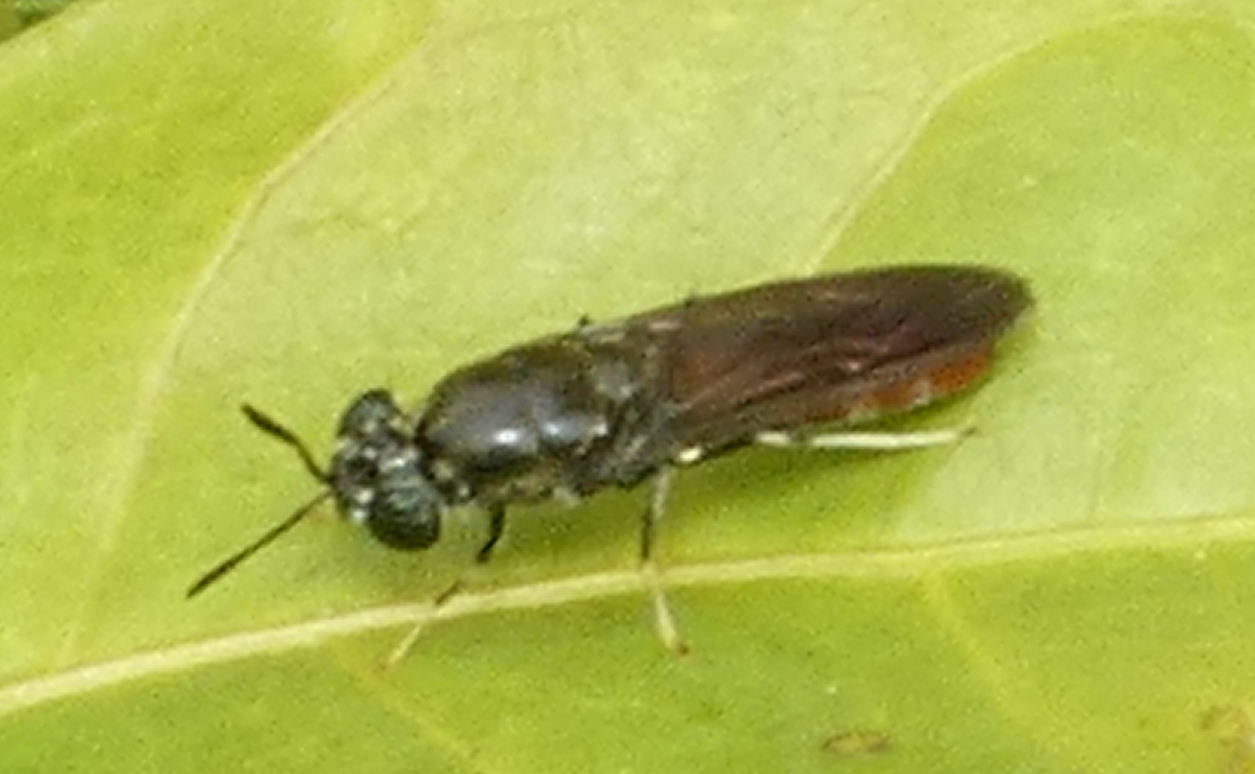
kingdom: Animalia
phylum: Arthropoda
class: Insecta
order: Diptera
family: Stratiomyidae
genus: Hermetia
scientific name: Hermetia illucens
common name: Black soldier fly
